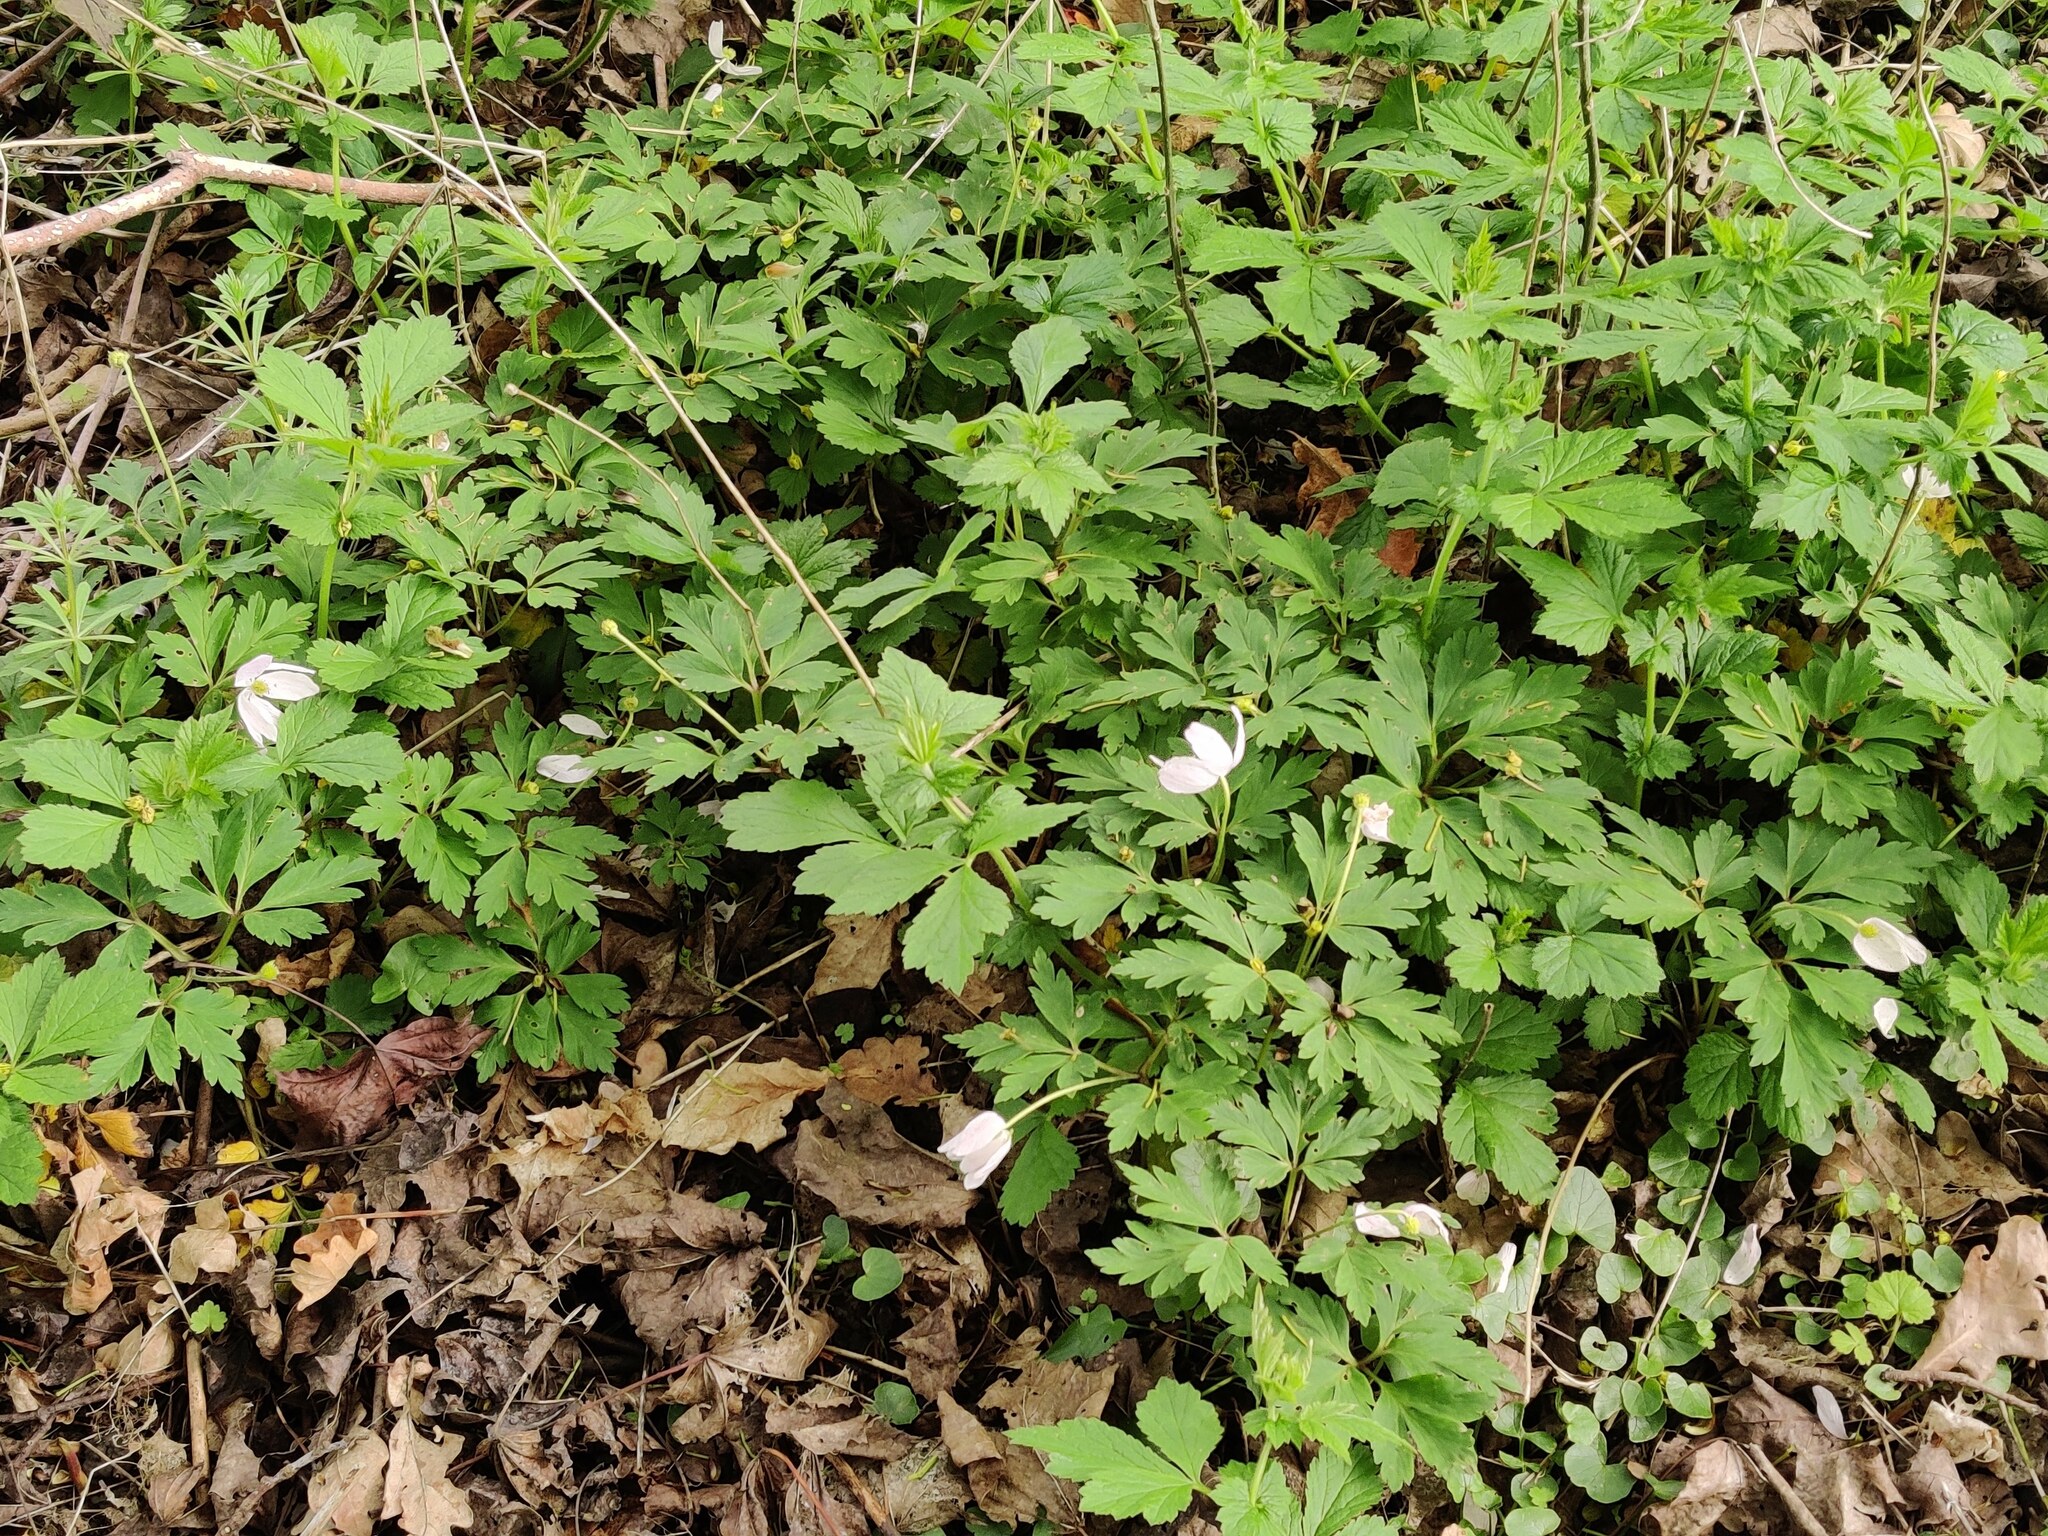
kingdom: Plantae
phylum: Tracheophyta
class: Magnoliopsida
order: Ranunculales
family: Ranunculaceae
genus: Anemone
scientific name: Anemone nemorosa
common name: Wood anemone
